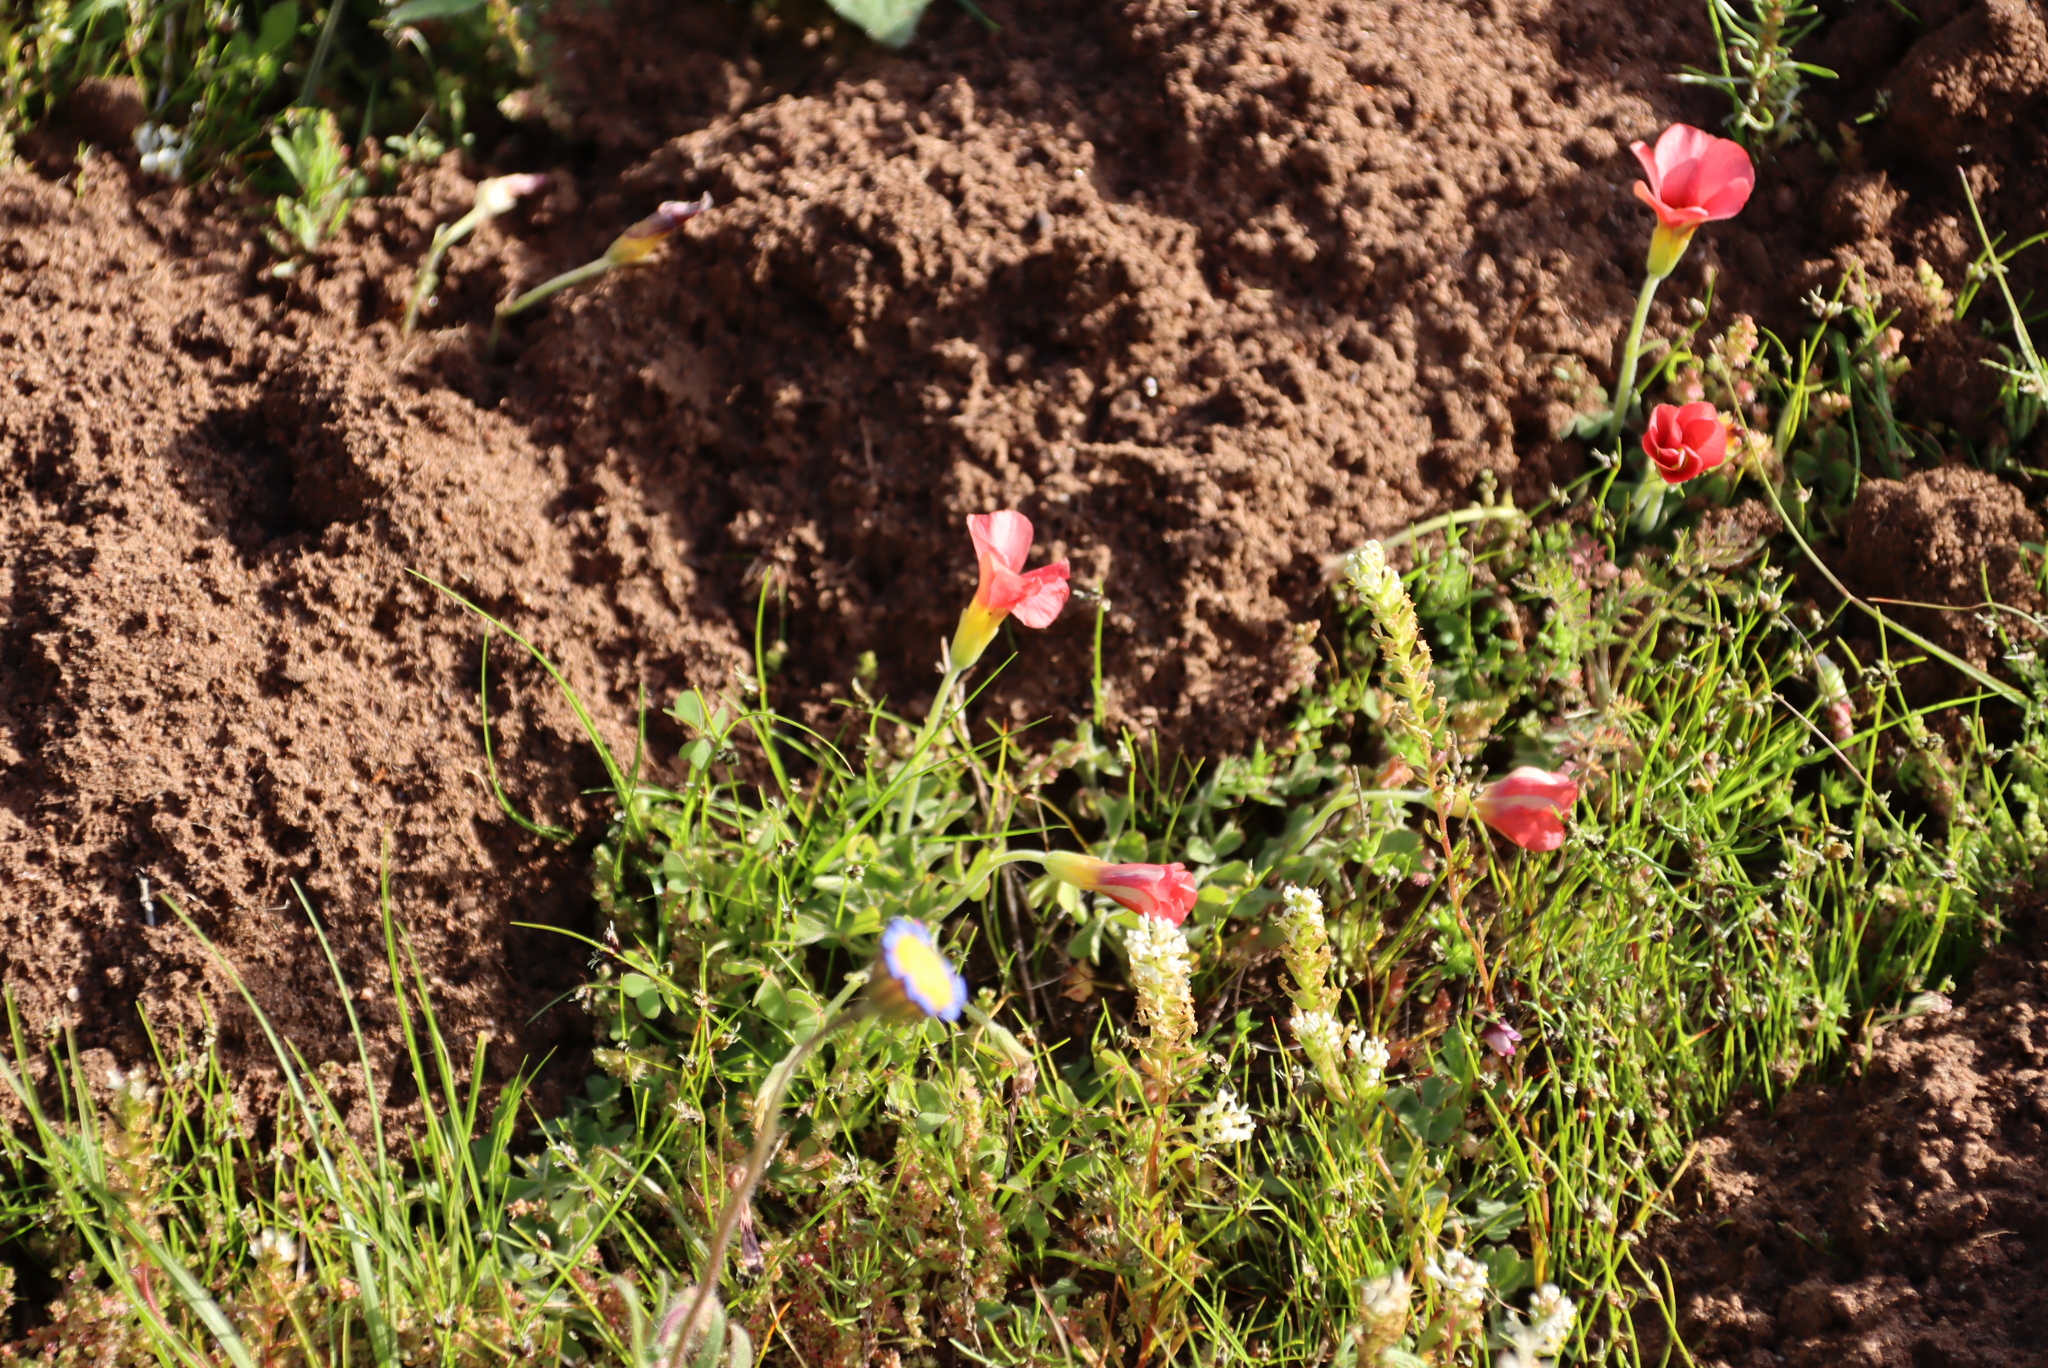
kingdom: Plantae
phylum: Tracheophyta
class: Magnoliopsida
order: Oxalidales
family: Oxalidaceae
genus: Oxalis
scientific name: Oxalis obtusa
